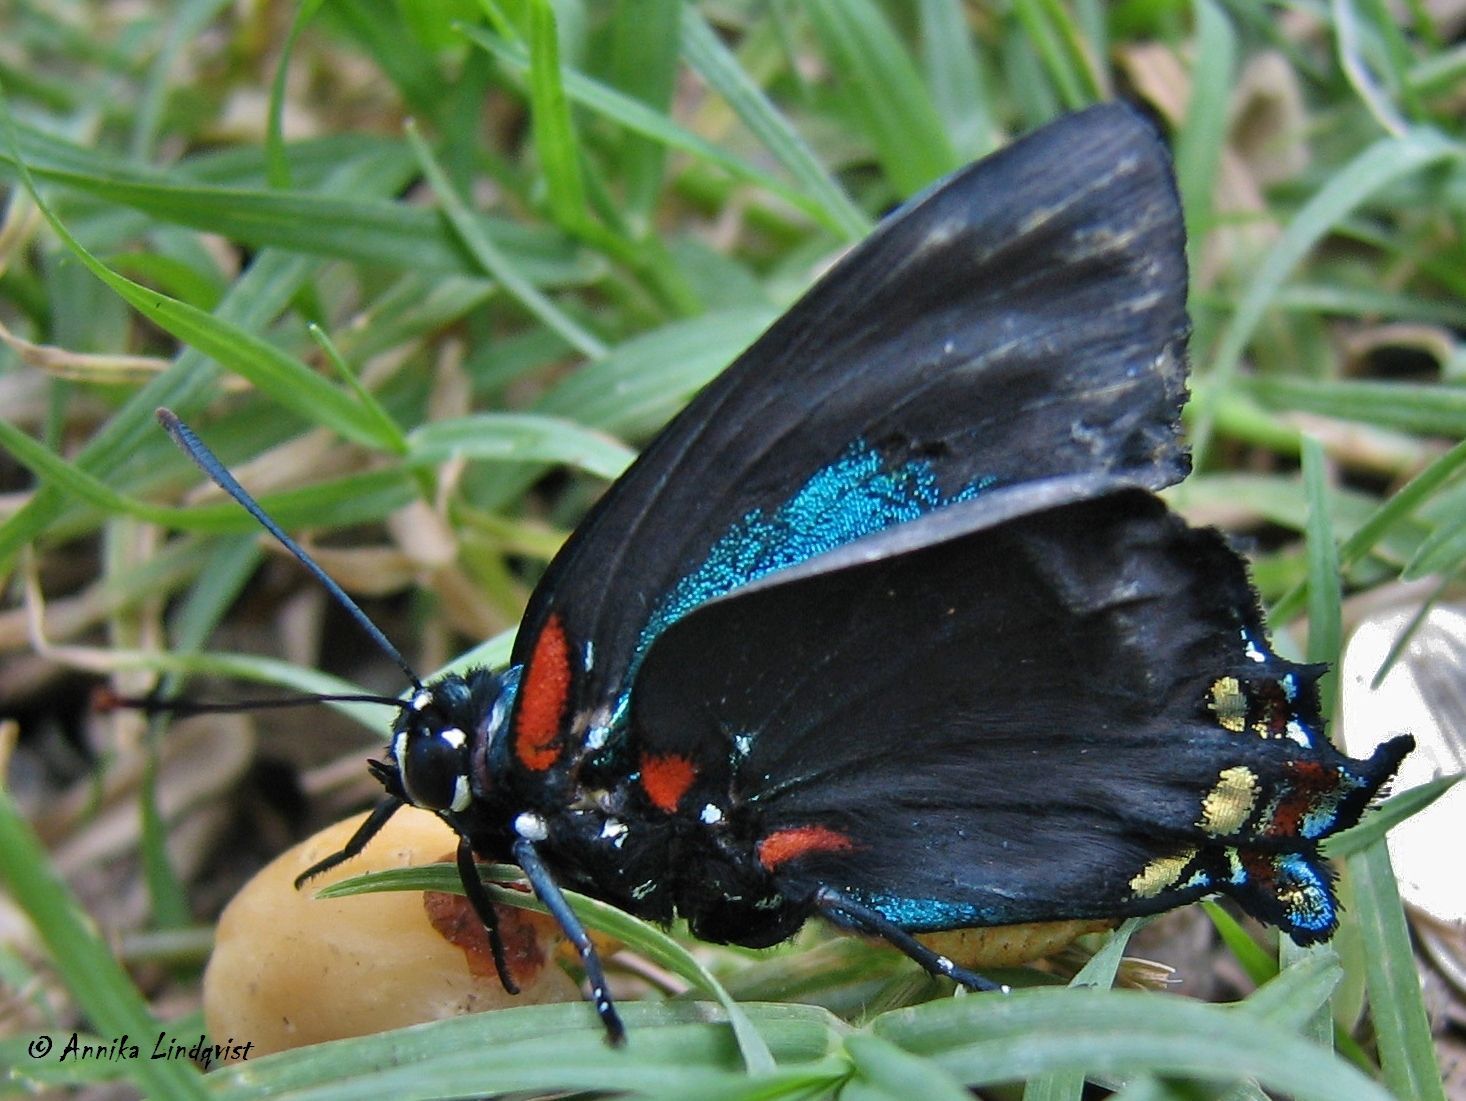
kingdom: Animalia
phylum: Arthropoda
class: Insecta
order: Lepidoptera
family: Lycaenidae
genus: Atlides
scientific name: Atlides halesus
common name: Great purple hairstreak
